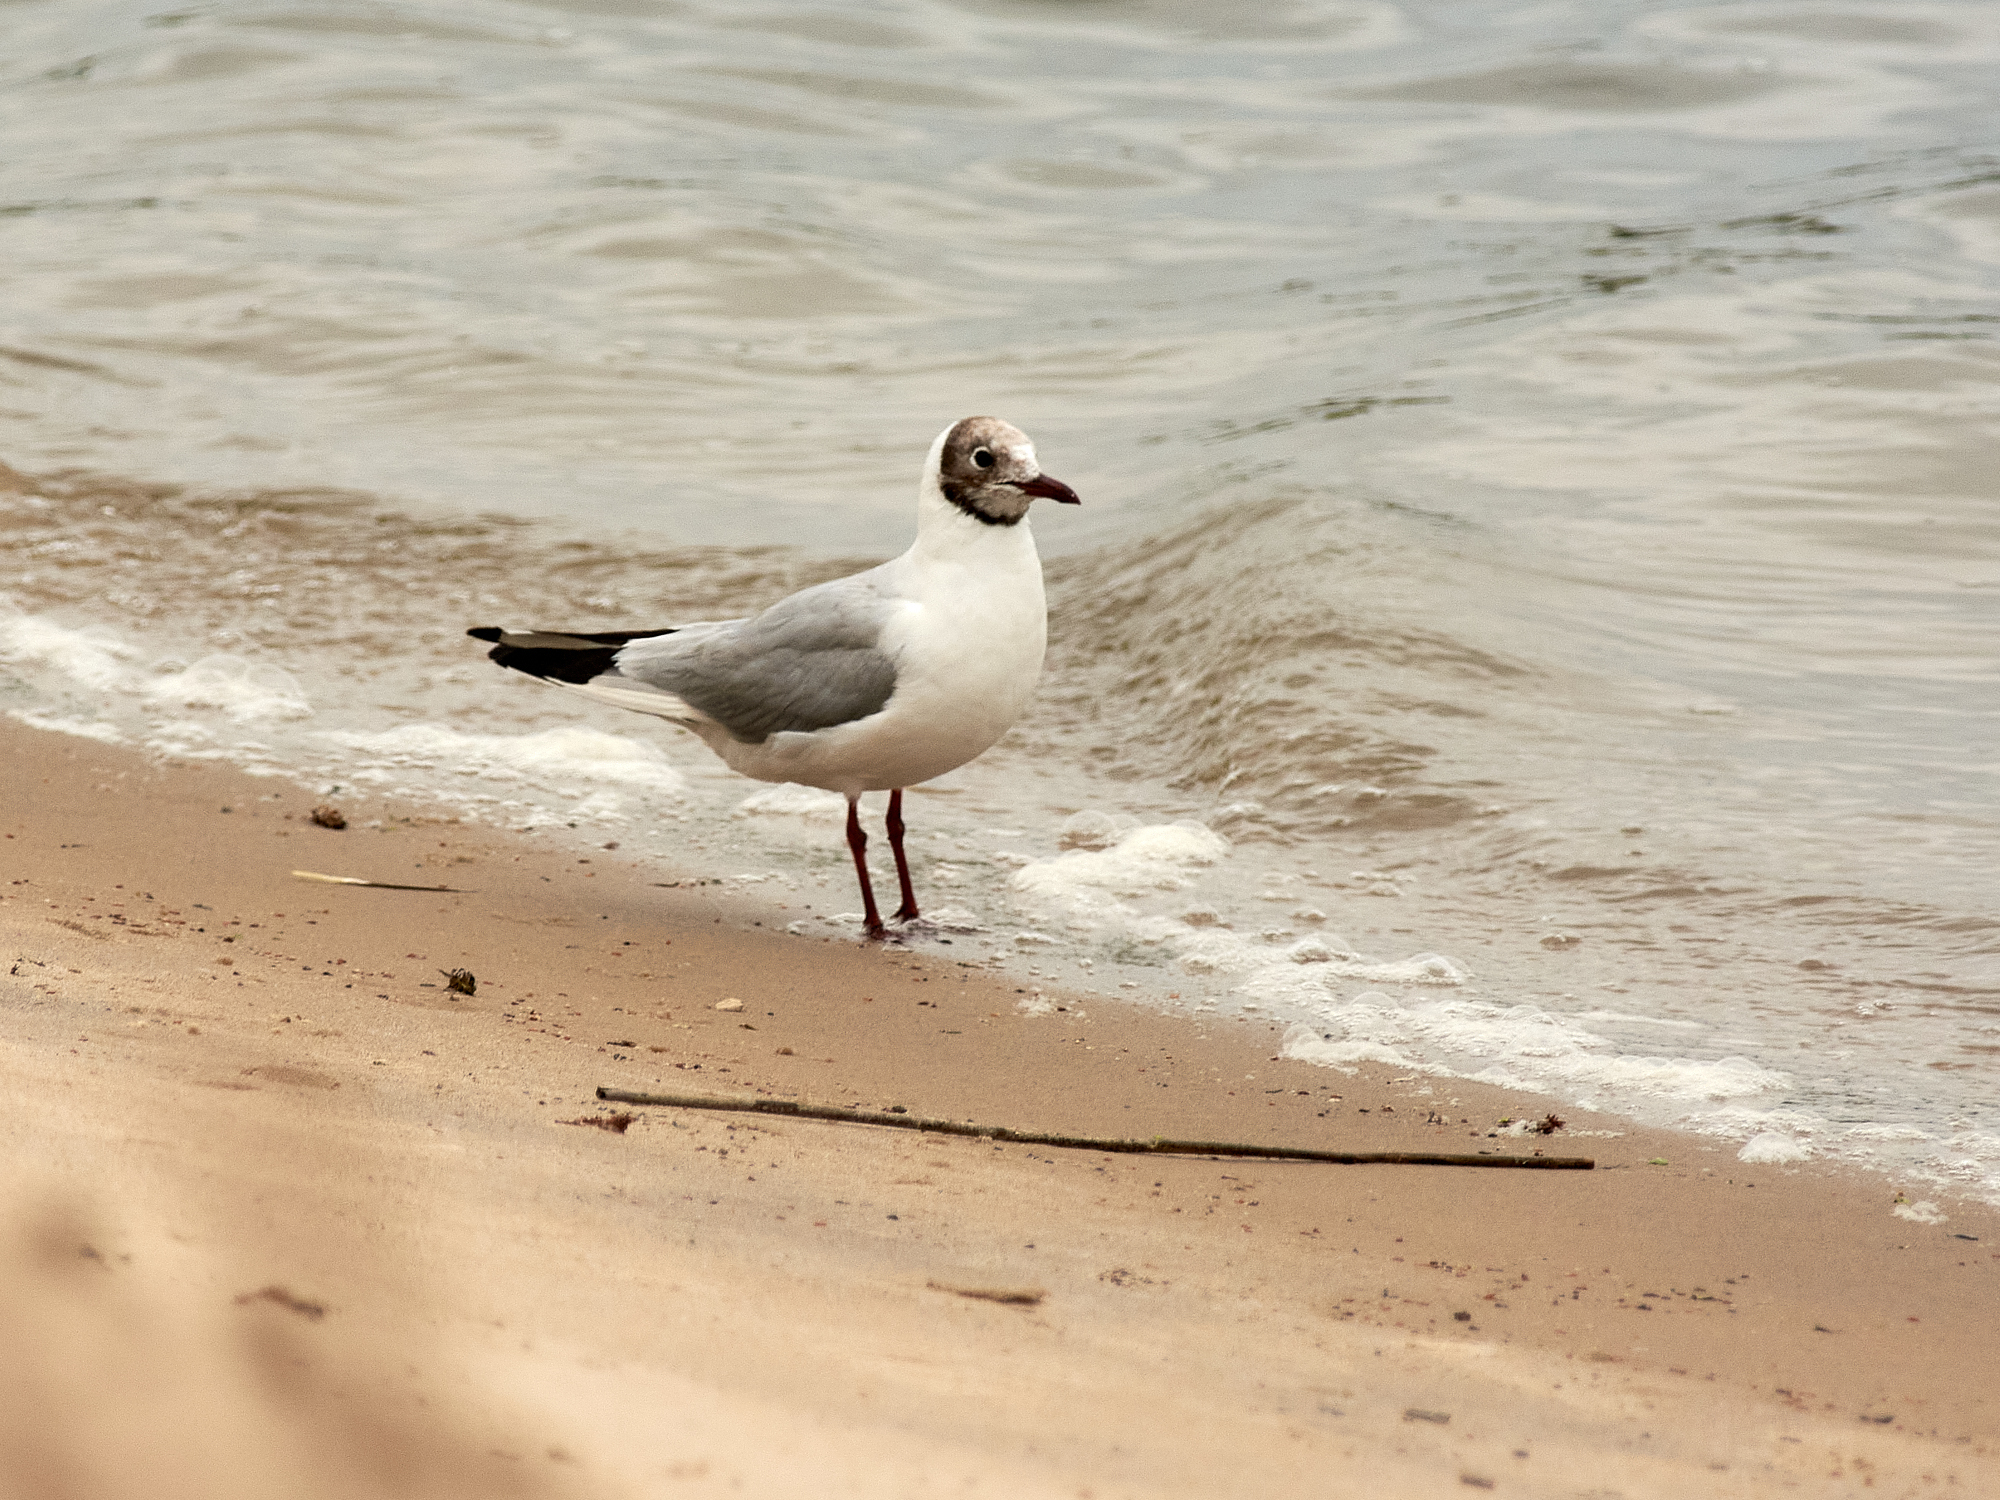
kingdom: Animalia
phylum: Chordata
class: Aves
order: Charadriiformes
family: Laridae
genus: Chroicocephalus
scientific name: Chroicocephalus ridibundus
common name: Black-headed gull
